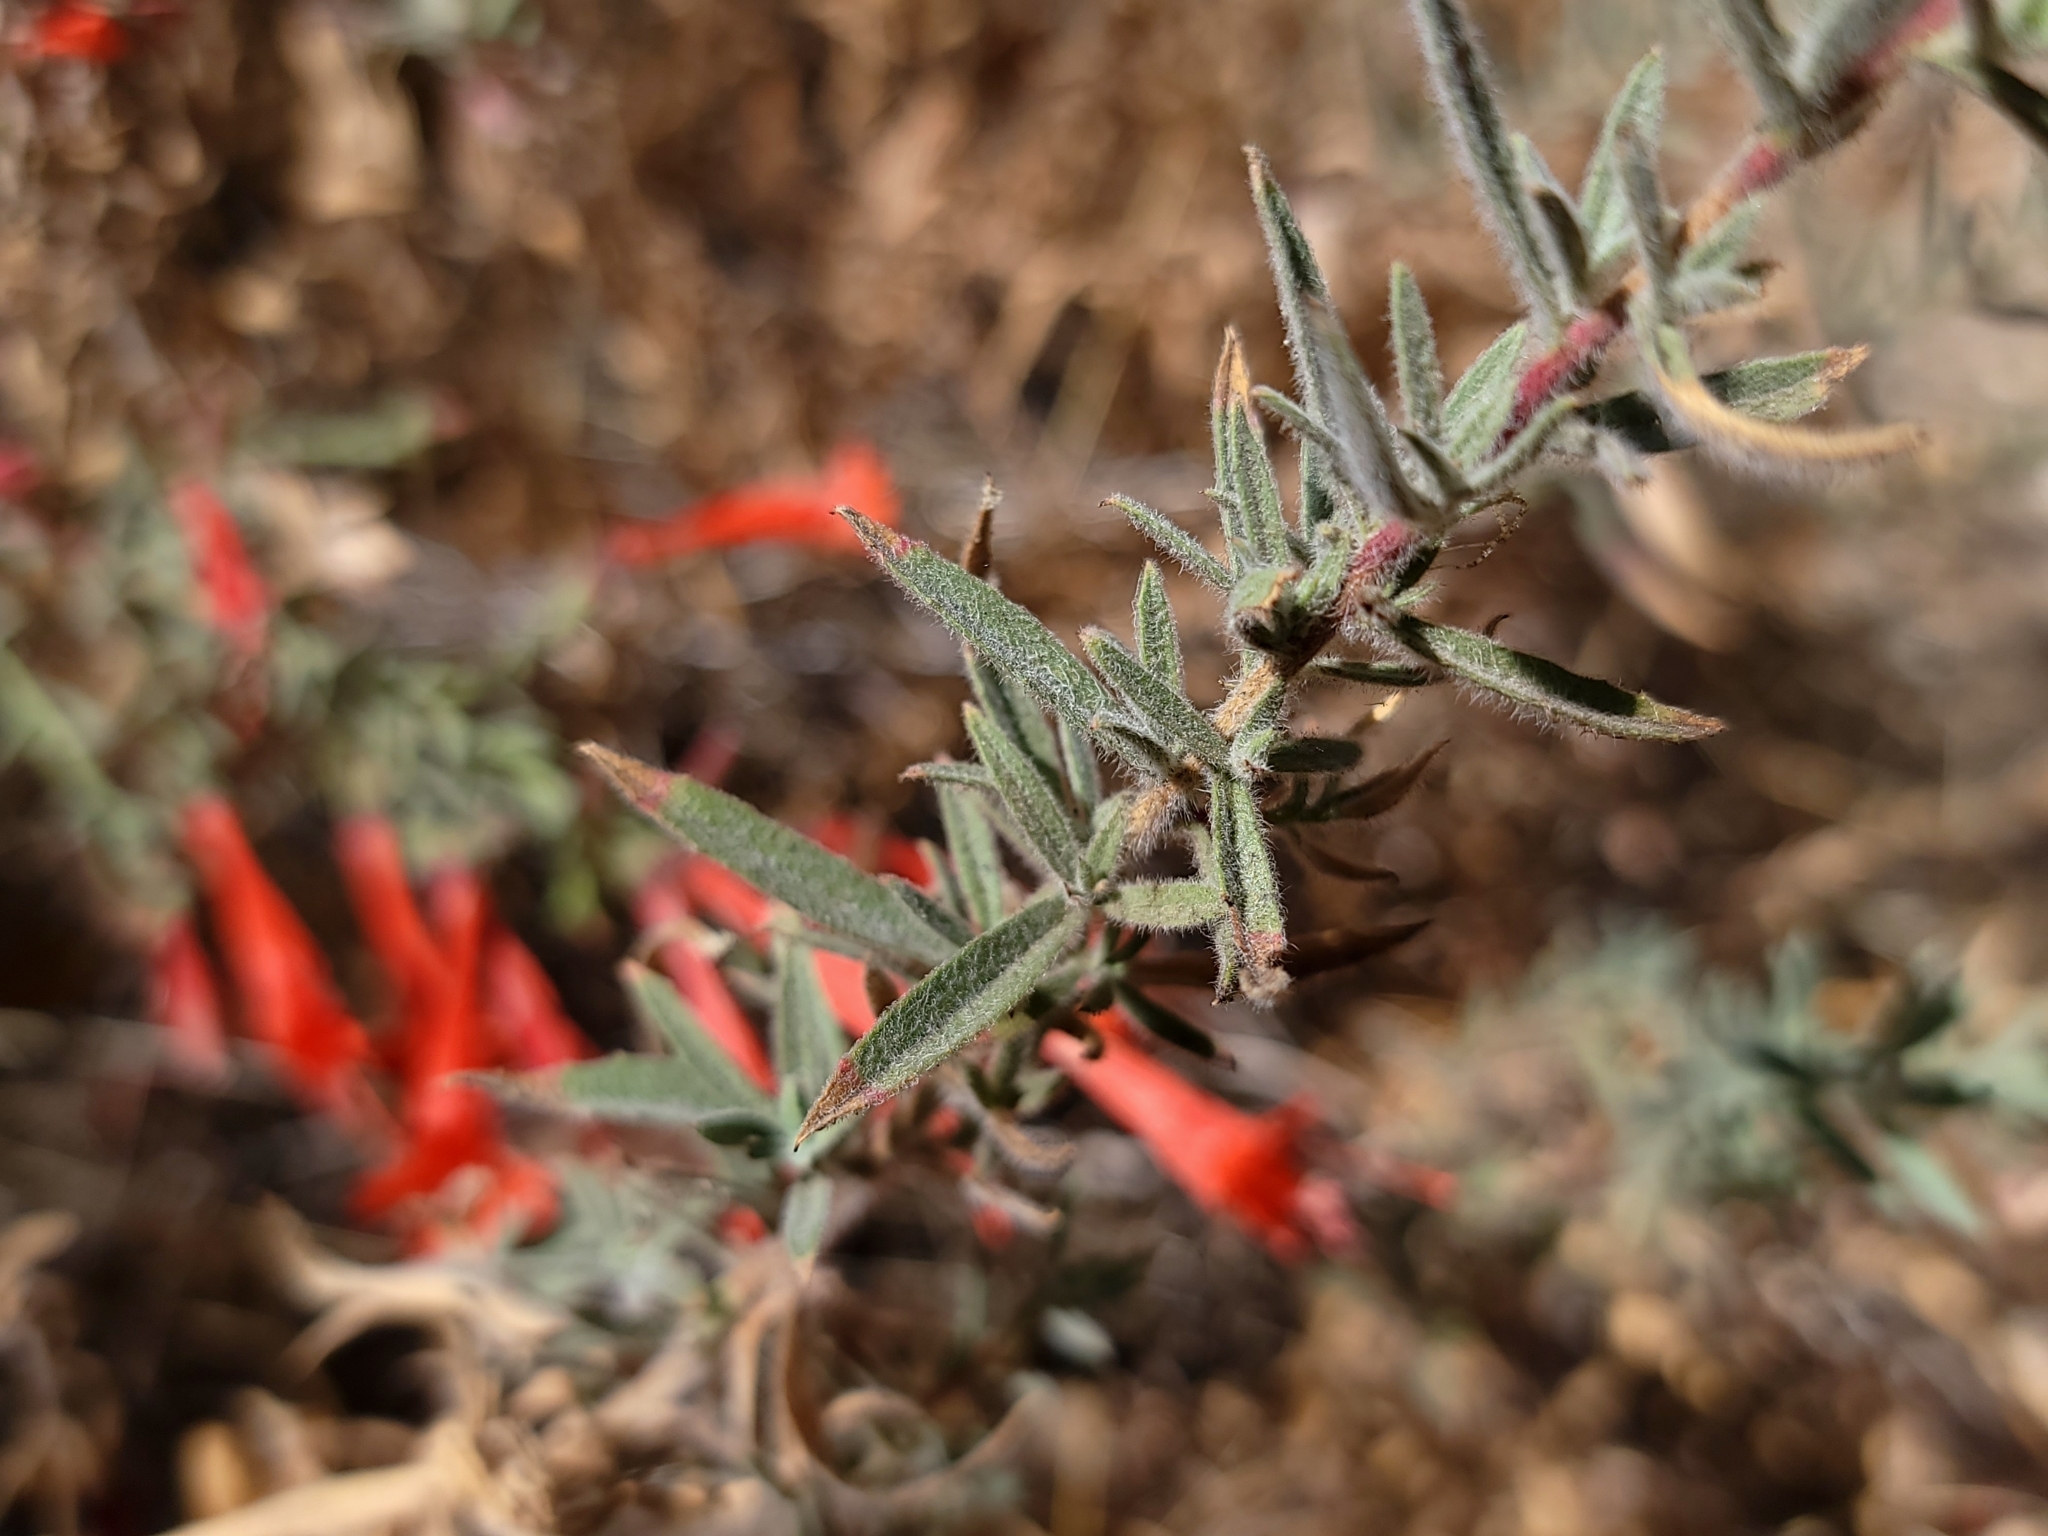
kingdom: Plantae
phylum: Tracheophyta
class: Magnoliopsida
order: Myrtales
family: Onagraceae
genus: Epilobium
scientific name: Epilobium canum
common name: California-fuchsia
